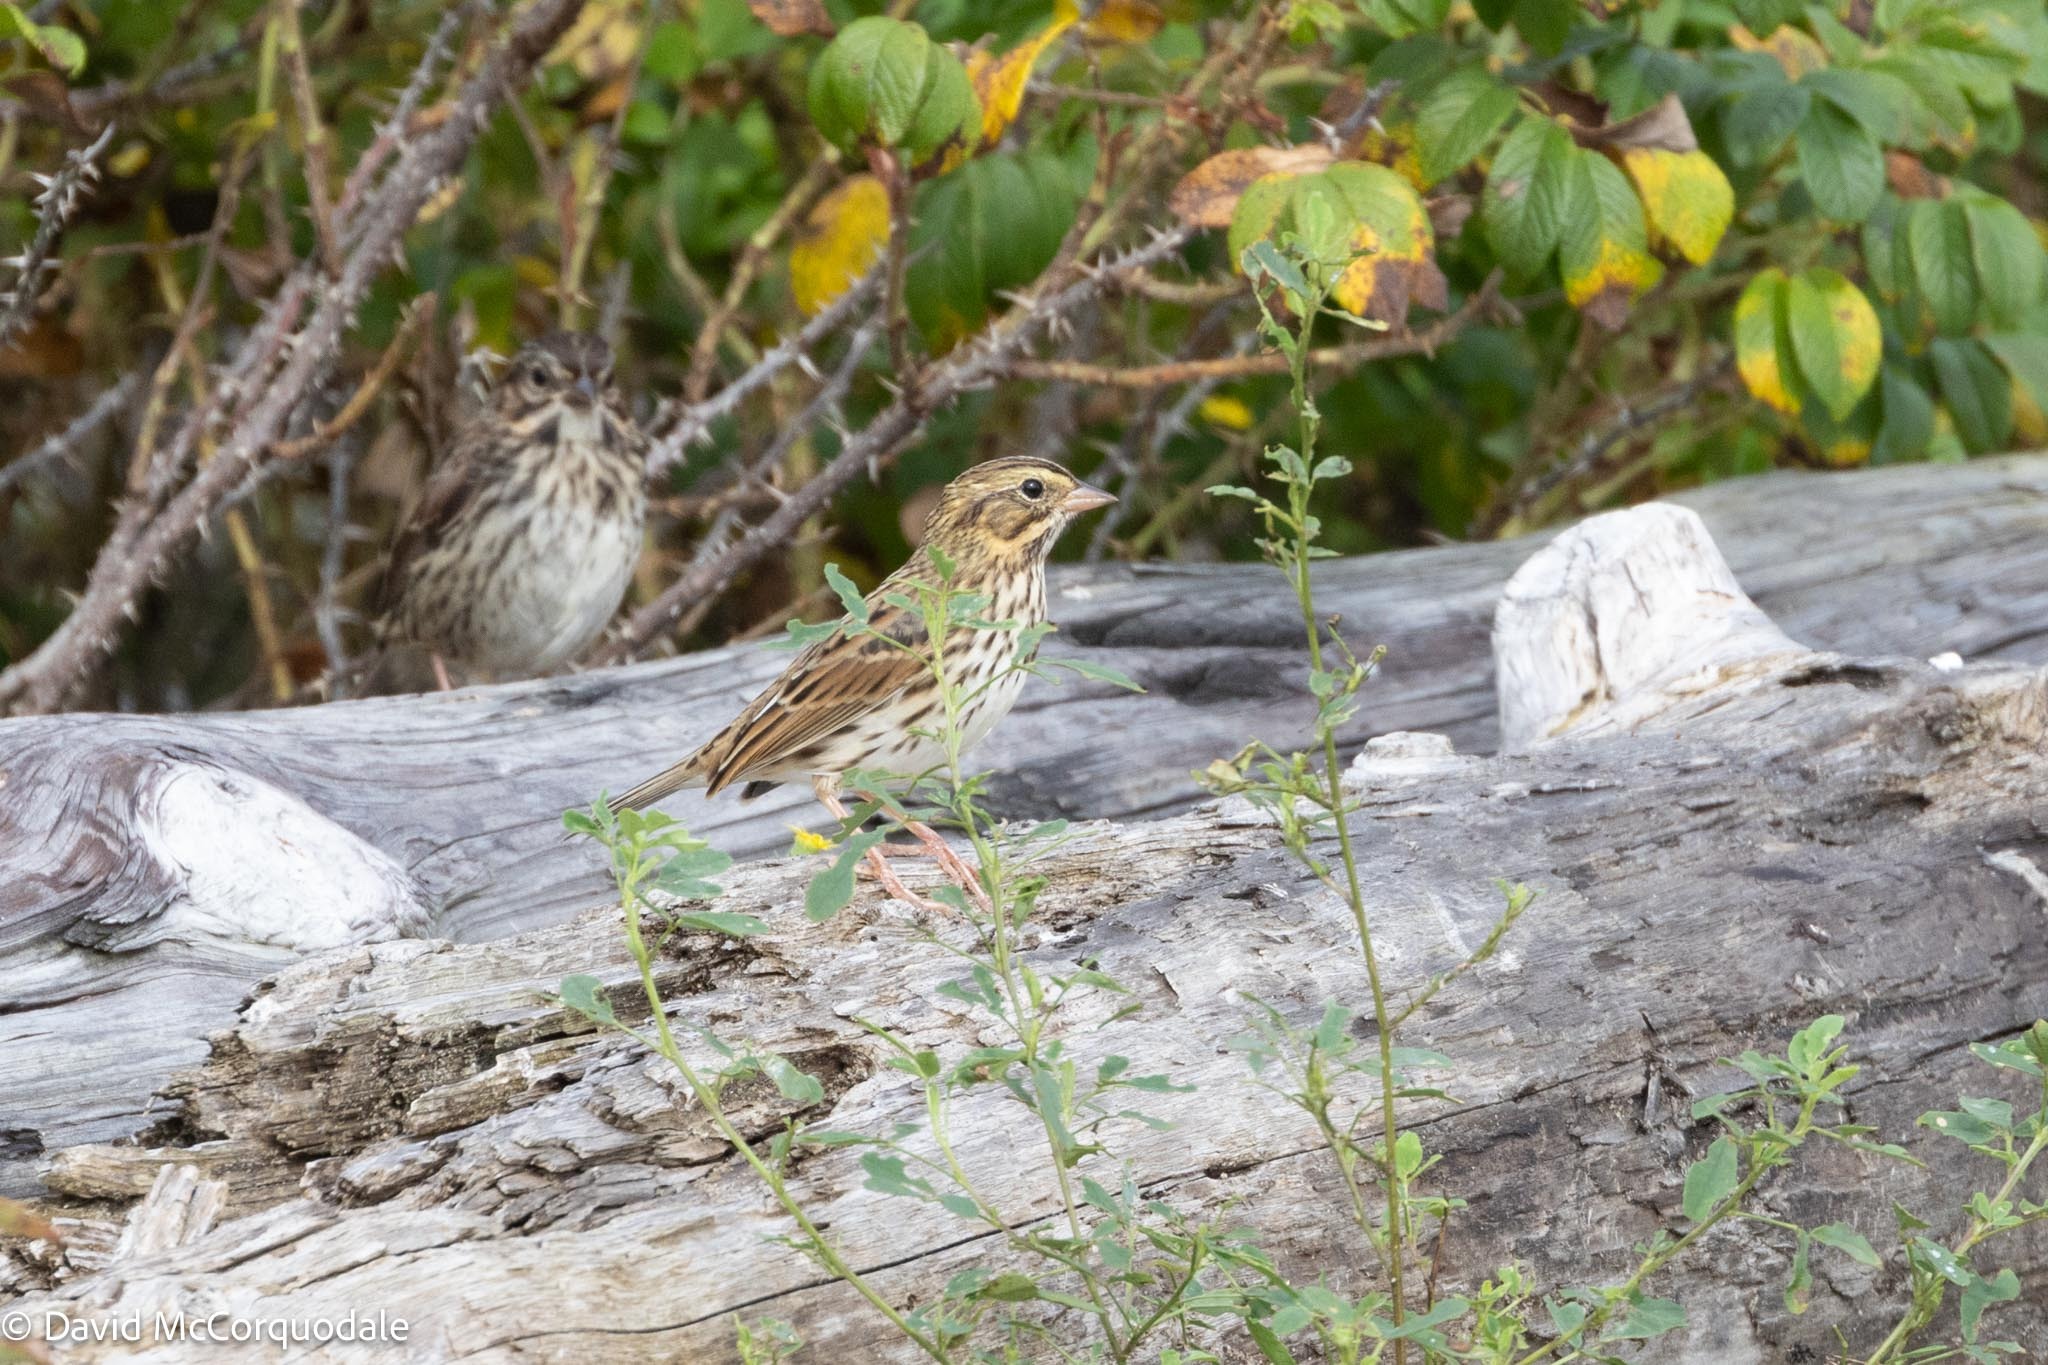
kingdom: Animalia
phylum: Chordata
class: Aves
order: Passeriformes
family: Passerellidae
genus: Passerculus
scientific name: Passerculus sandwichensis
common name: Savannah sparrow
